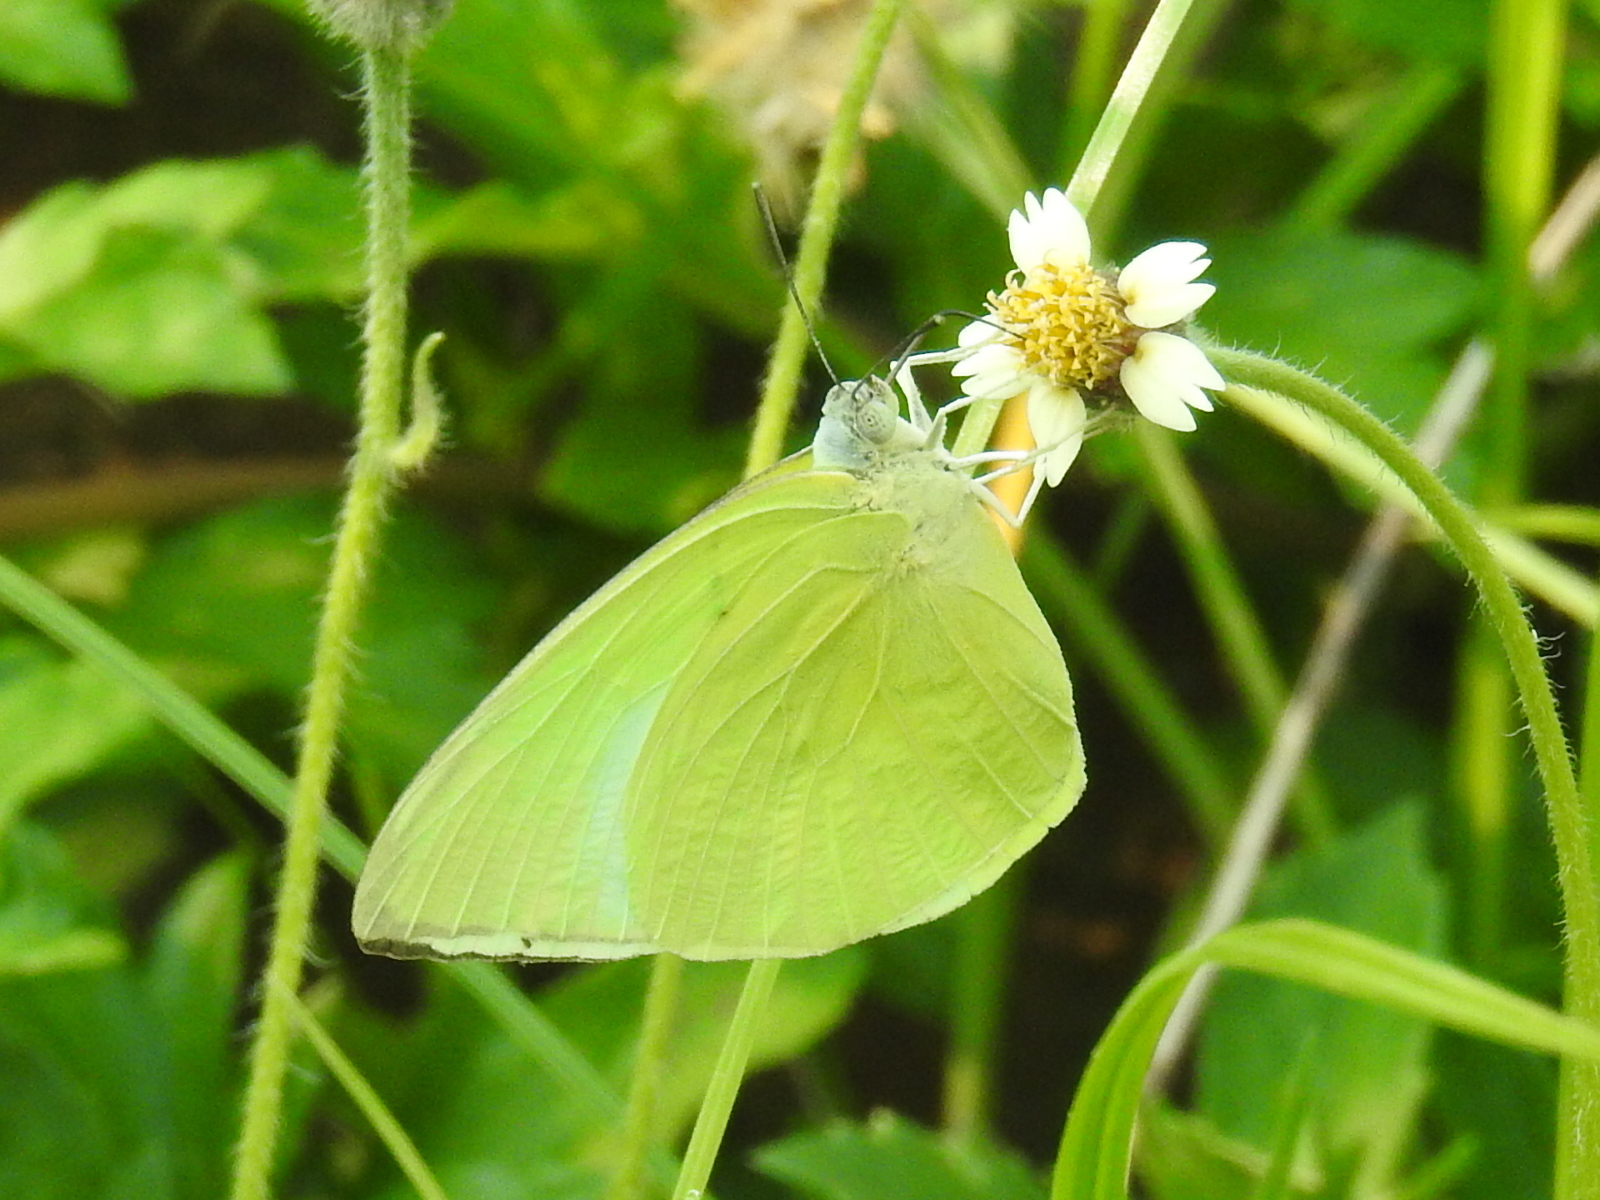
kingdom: Animalia
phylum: Arthropoda
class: Insecta
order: Lepidoptera
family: Pieridae
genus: Catopsilia
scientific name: Catopsilia pomona
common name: Common emigrant
